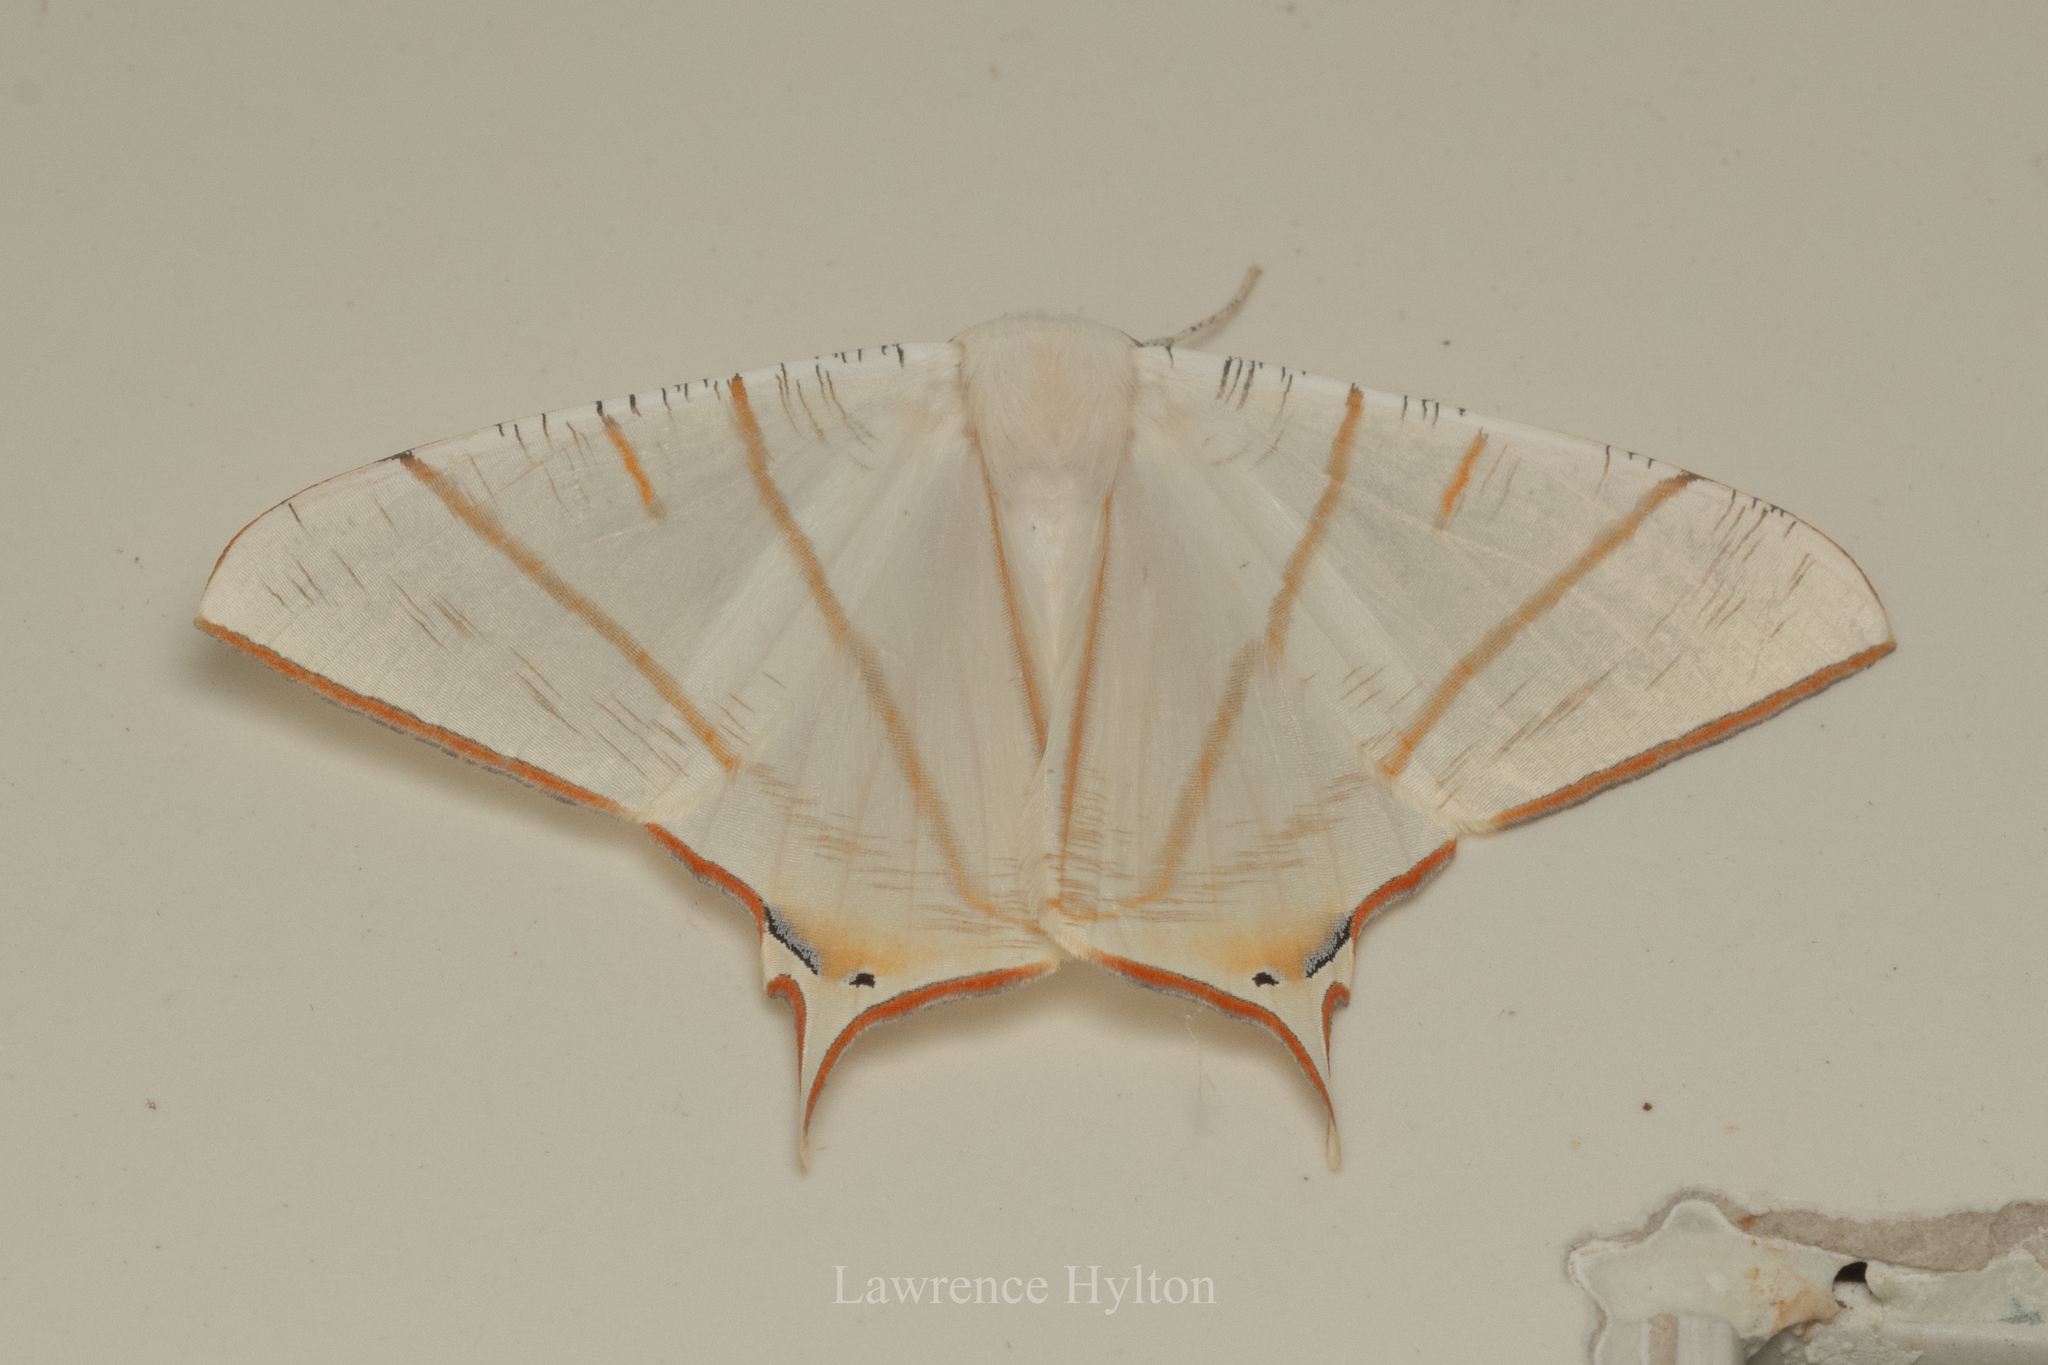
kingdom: Animalia
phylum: Arthropoda
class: Insecta
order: Lepidoptera
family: Geometridae
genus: Ourapteryx
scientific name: Ourapteryx clara
